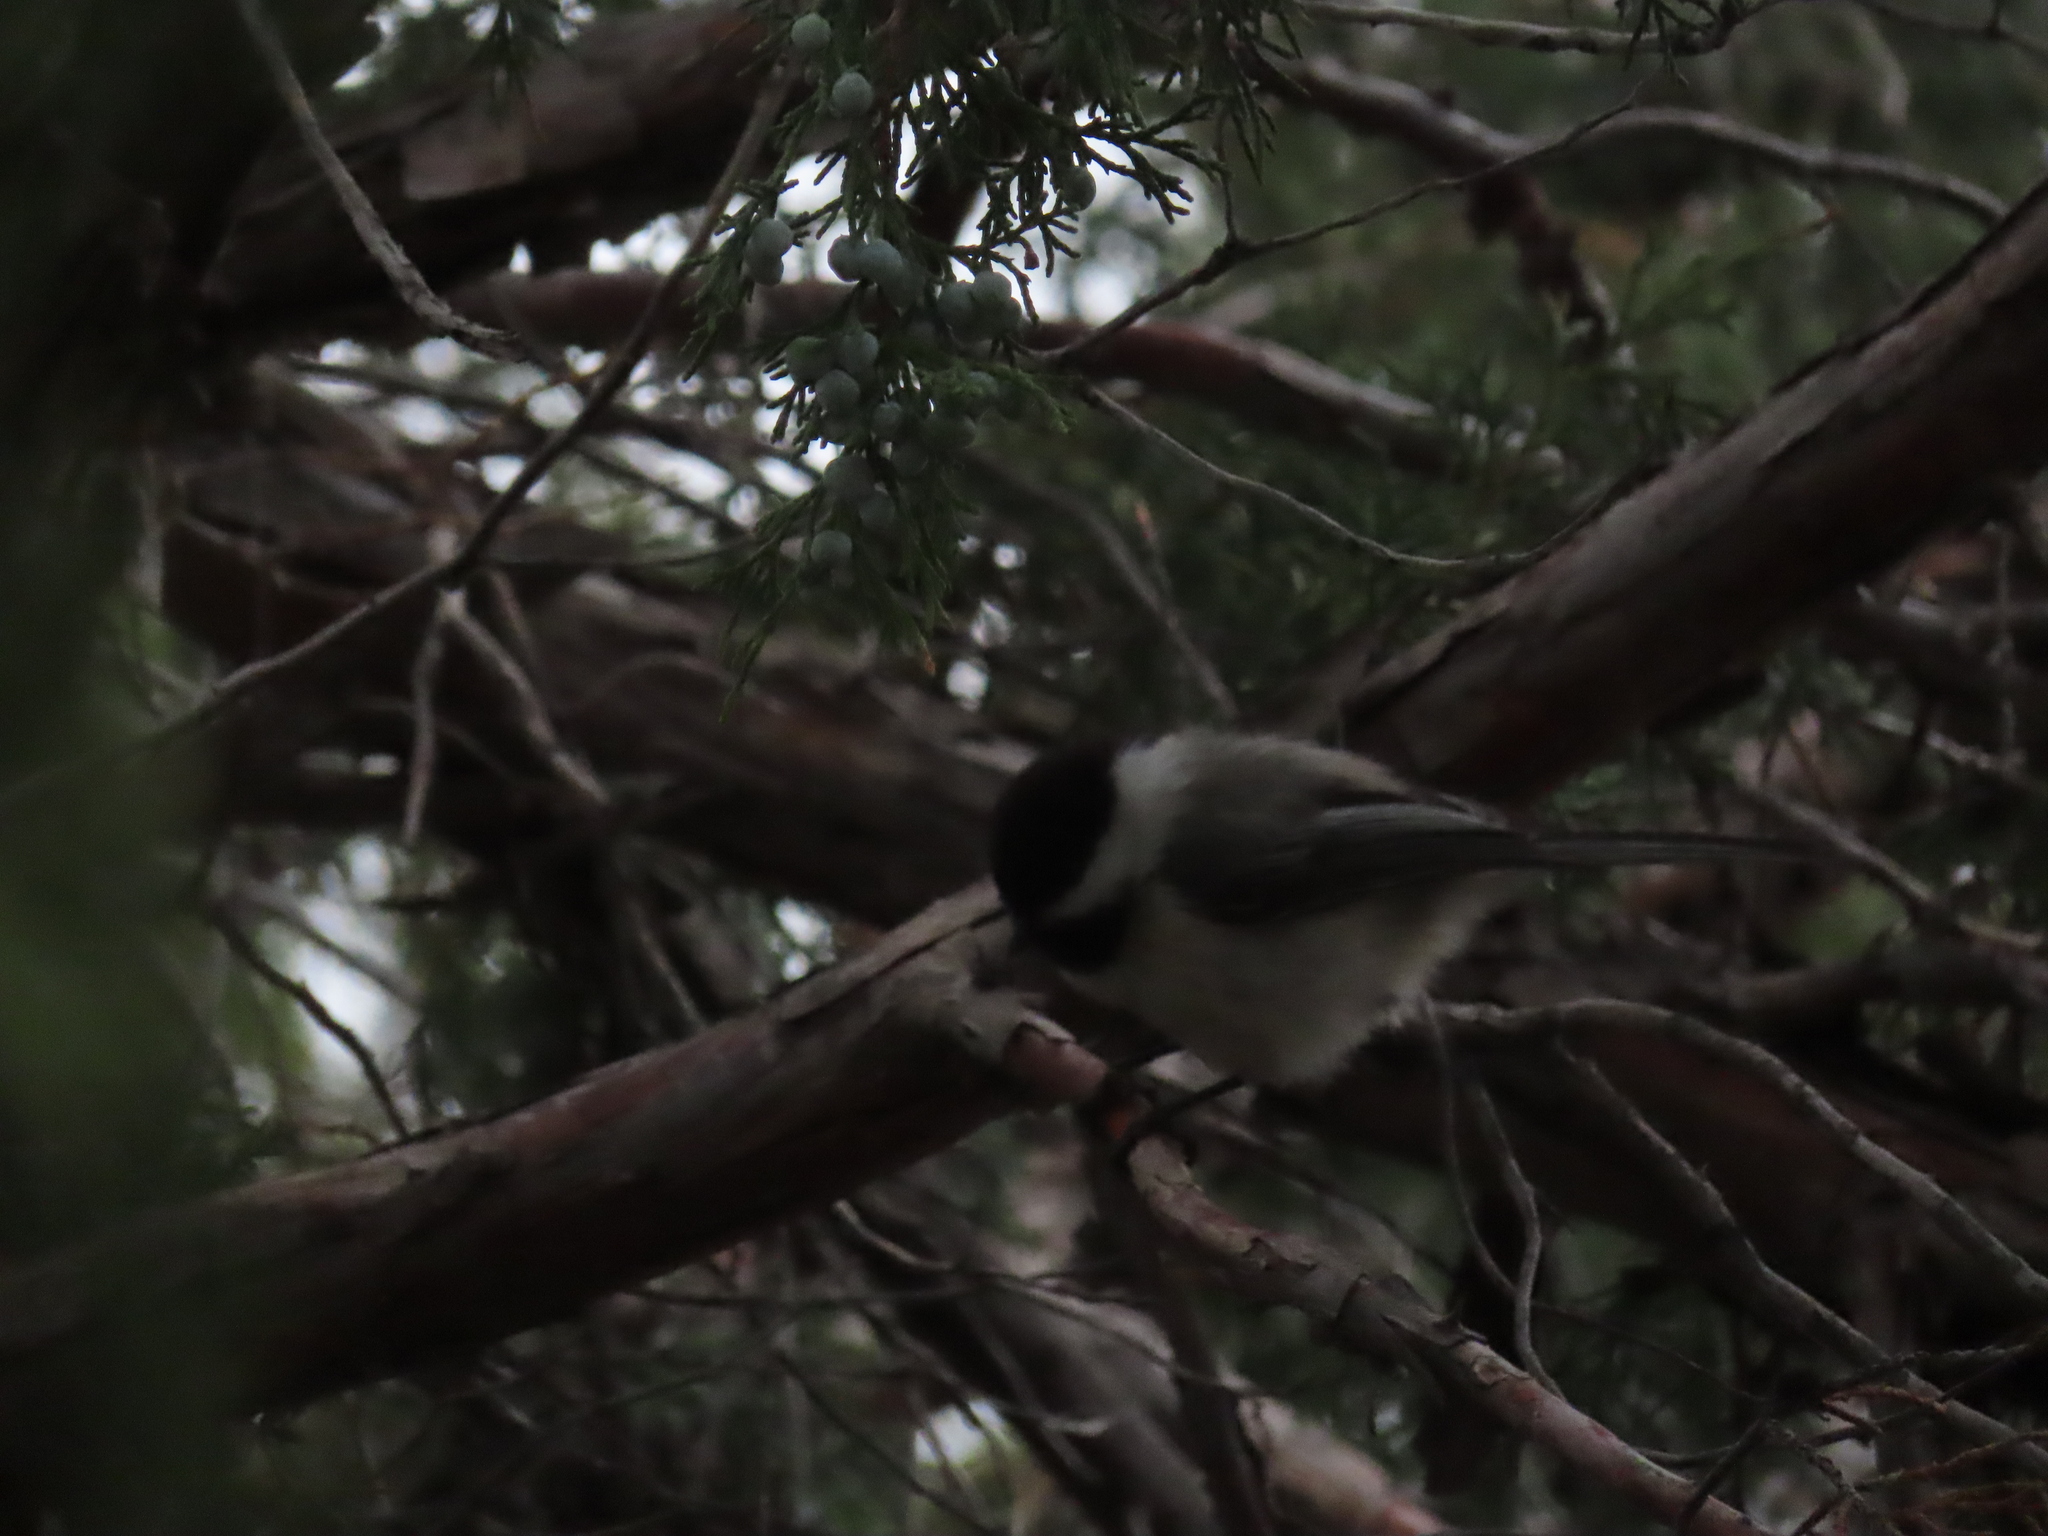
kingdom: Animalia
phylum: Chordata
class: Aves
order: Passeriformes
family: Paridae
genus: Poecile
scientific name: Poecile atricapillus
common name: Black-capped chickadee
